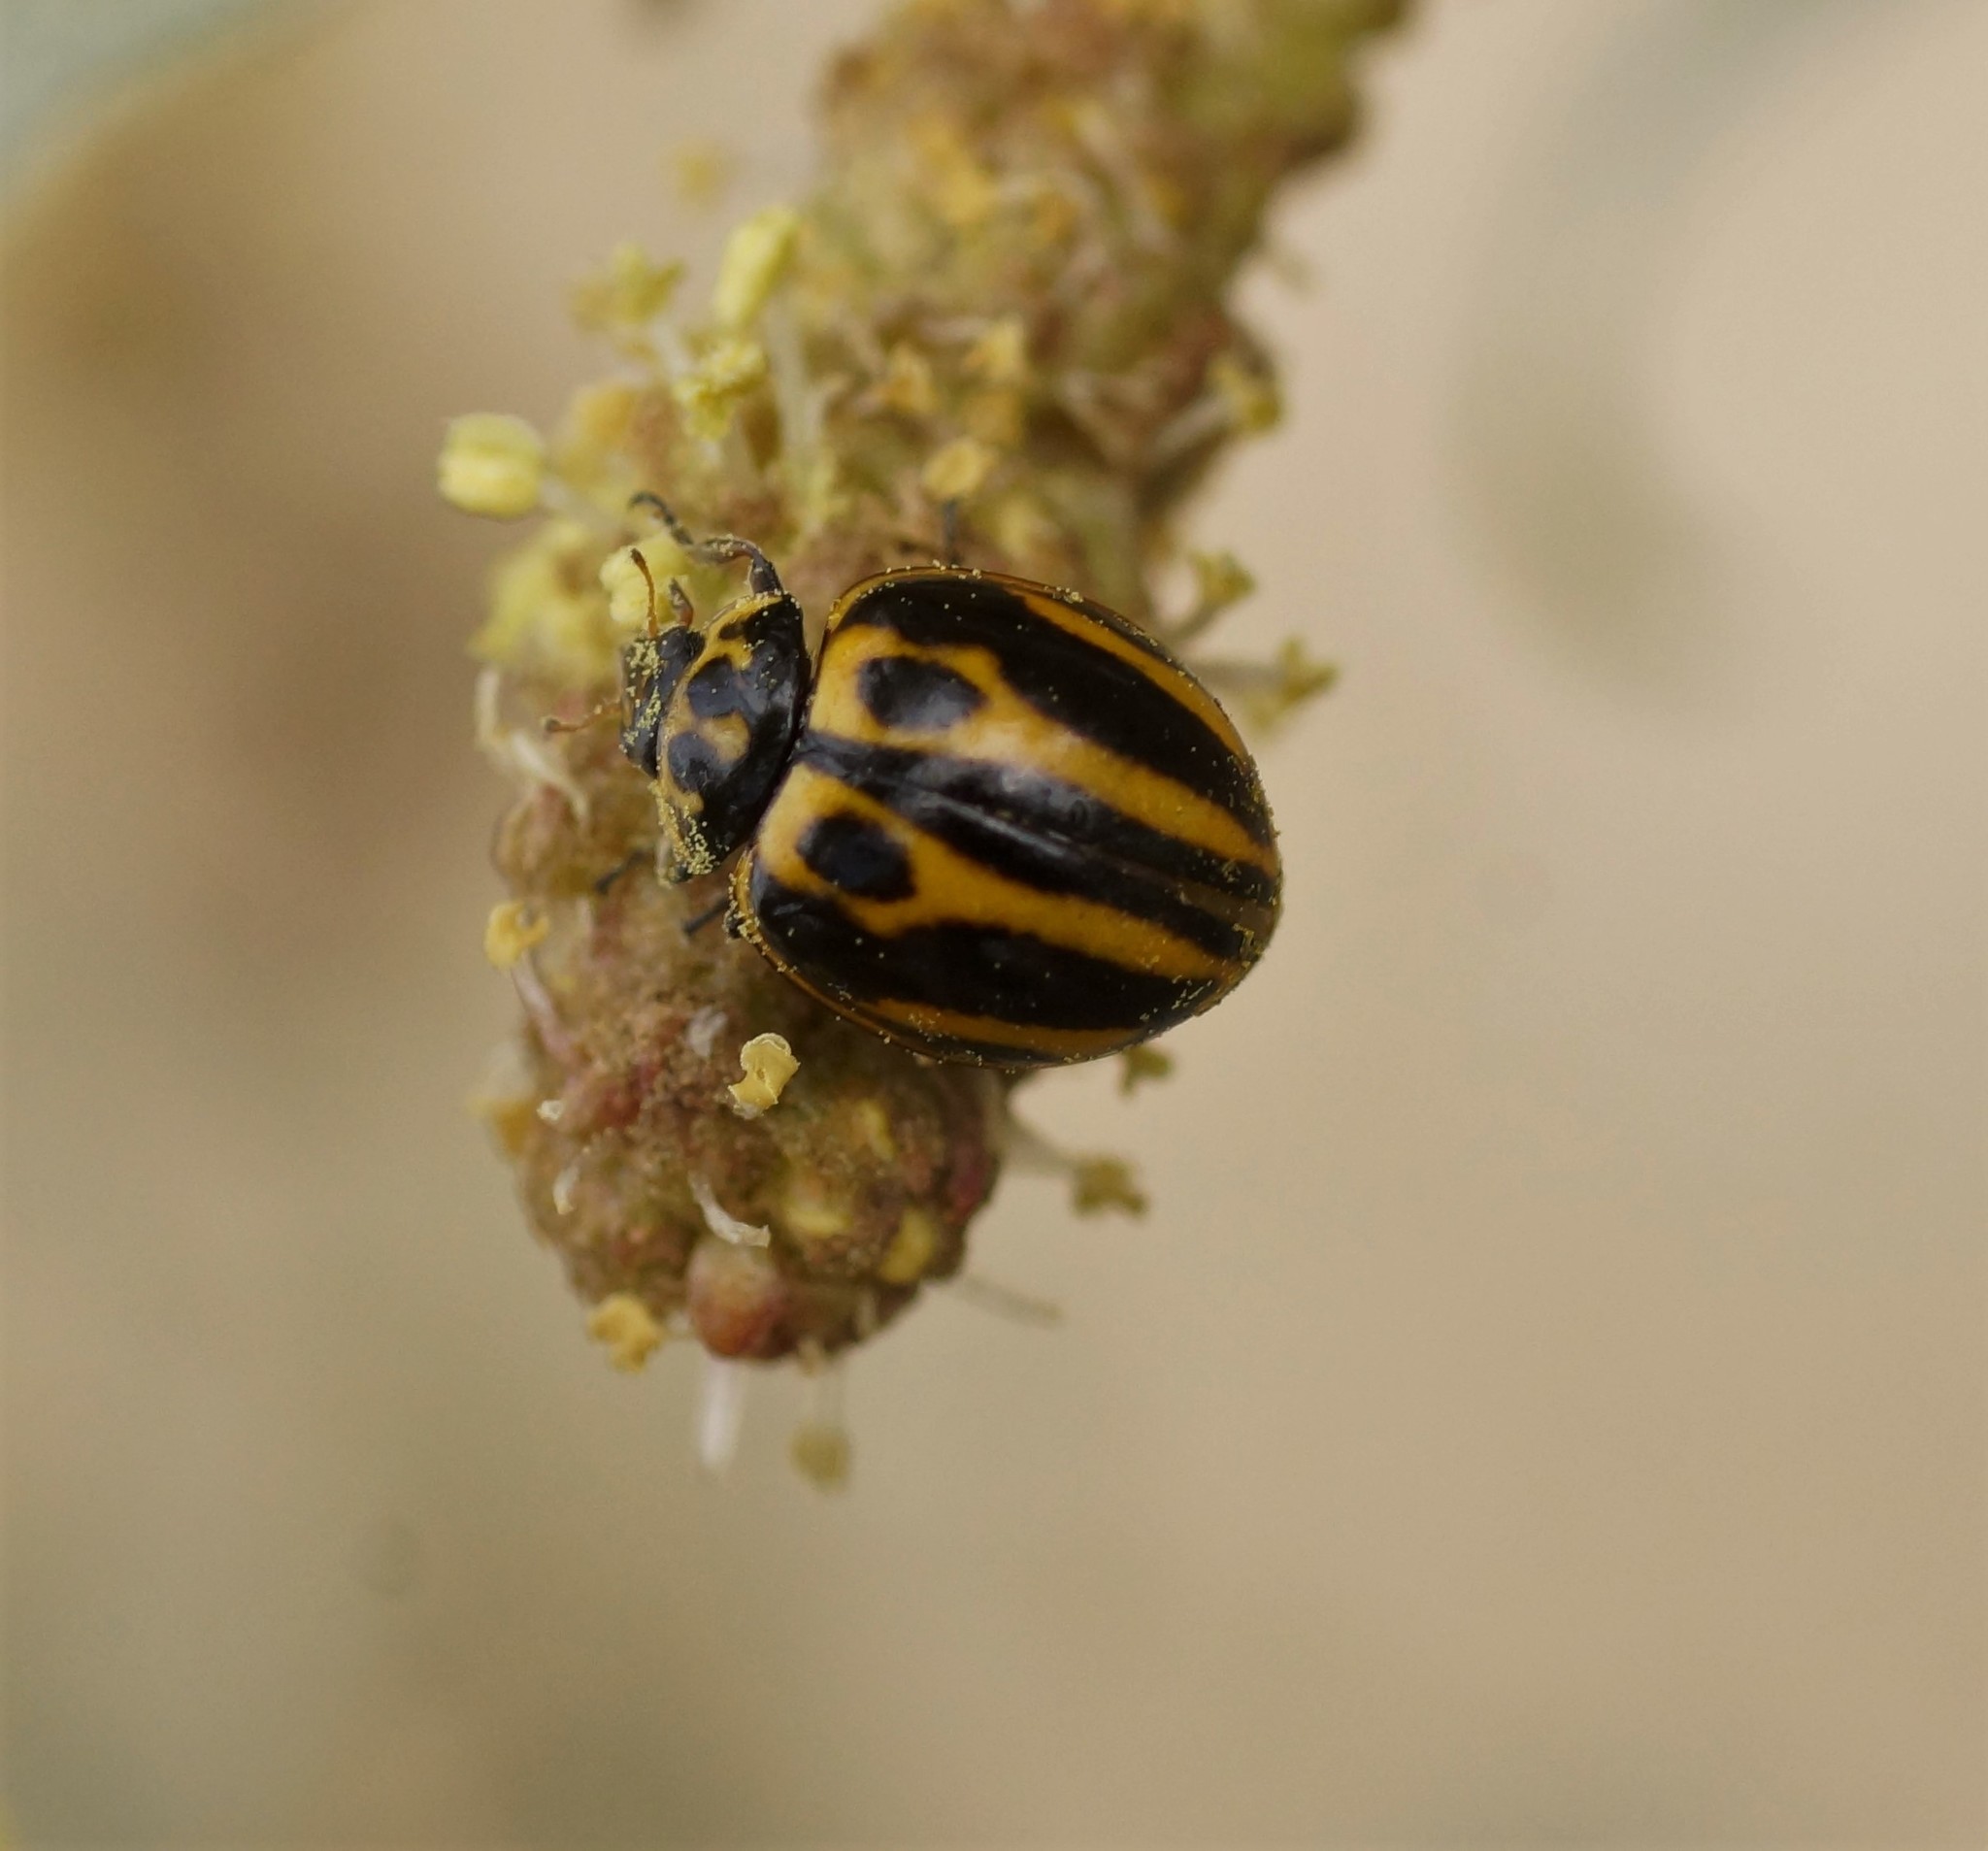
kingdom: Animalia
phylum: Arthropoda
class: Insecta
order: Coleoptera
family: Coccinellidae
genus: Micraspis
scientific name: Micraspis
